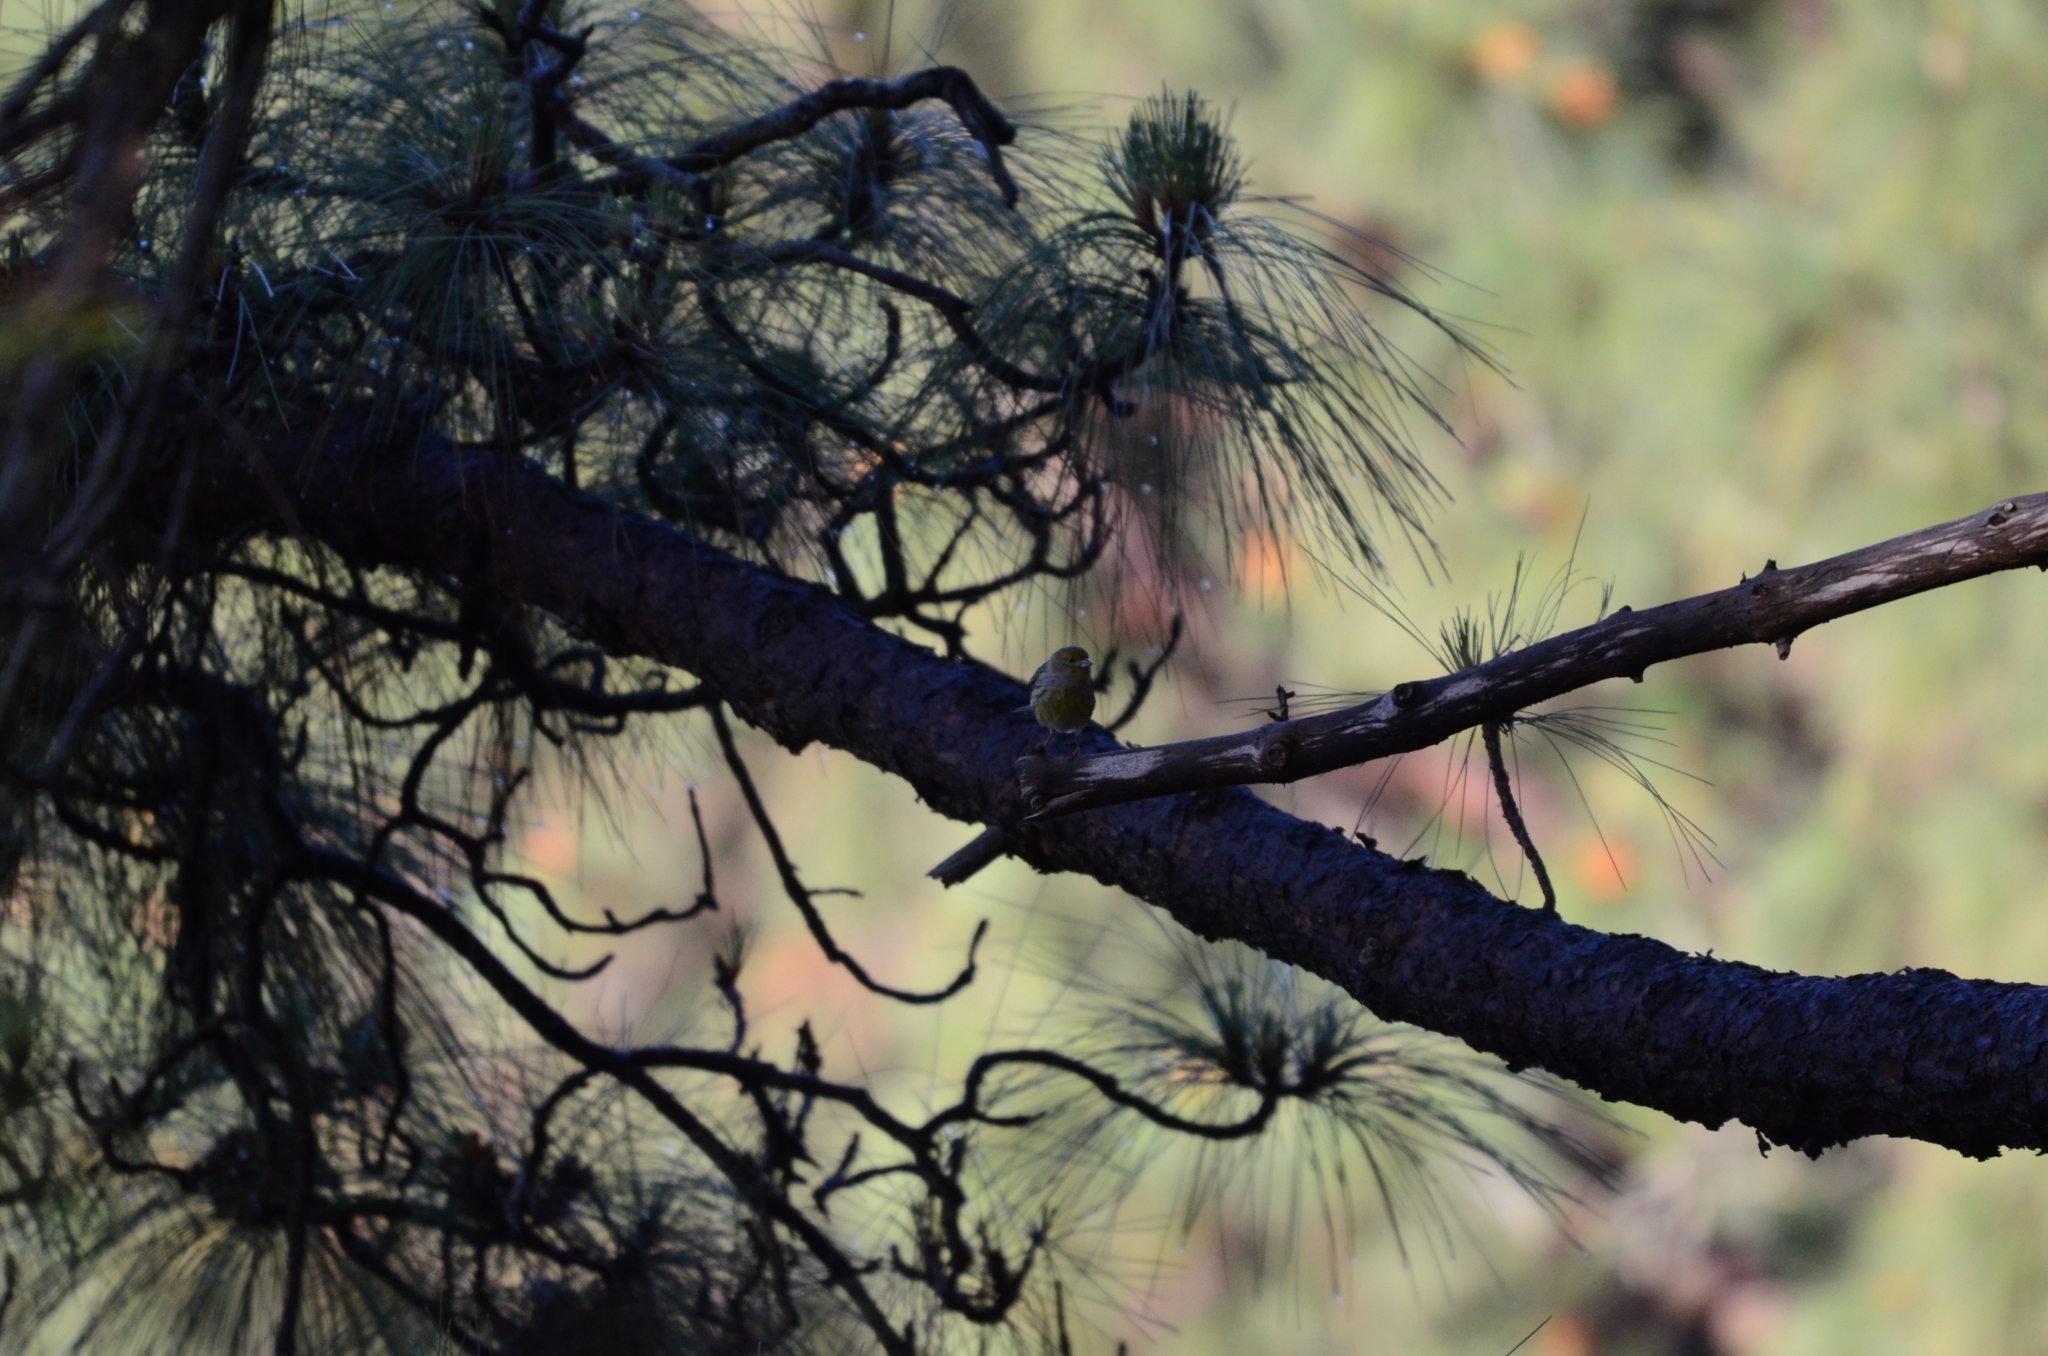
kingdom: Animalia
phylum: Chordata
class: Aves
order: Passeriformes
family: Fringillidae
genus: Serinus
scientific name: Serinus canaria
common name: Atlantic canary
